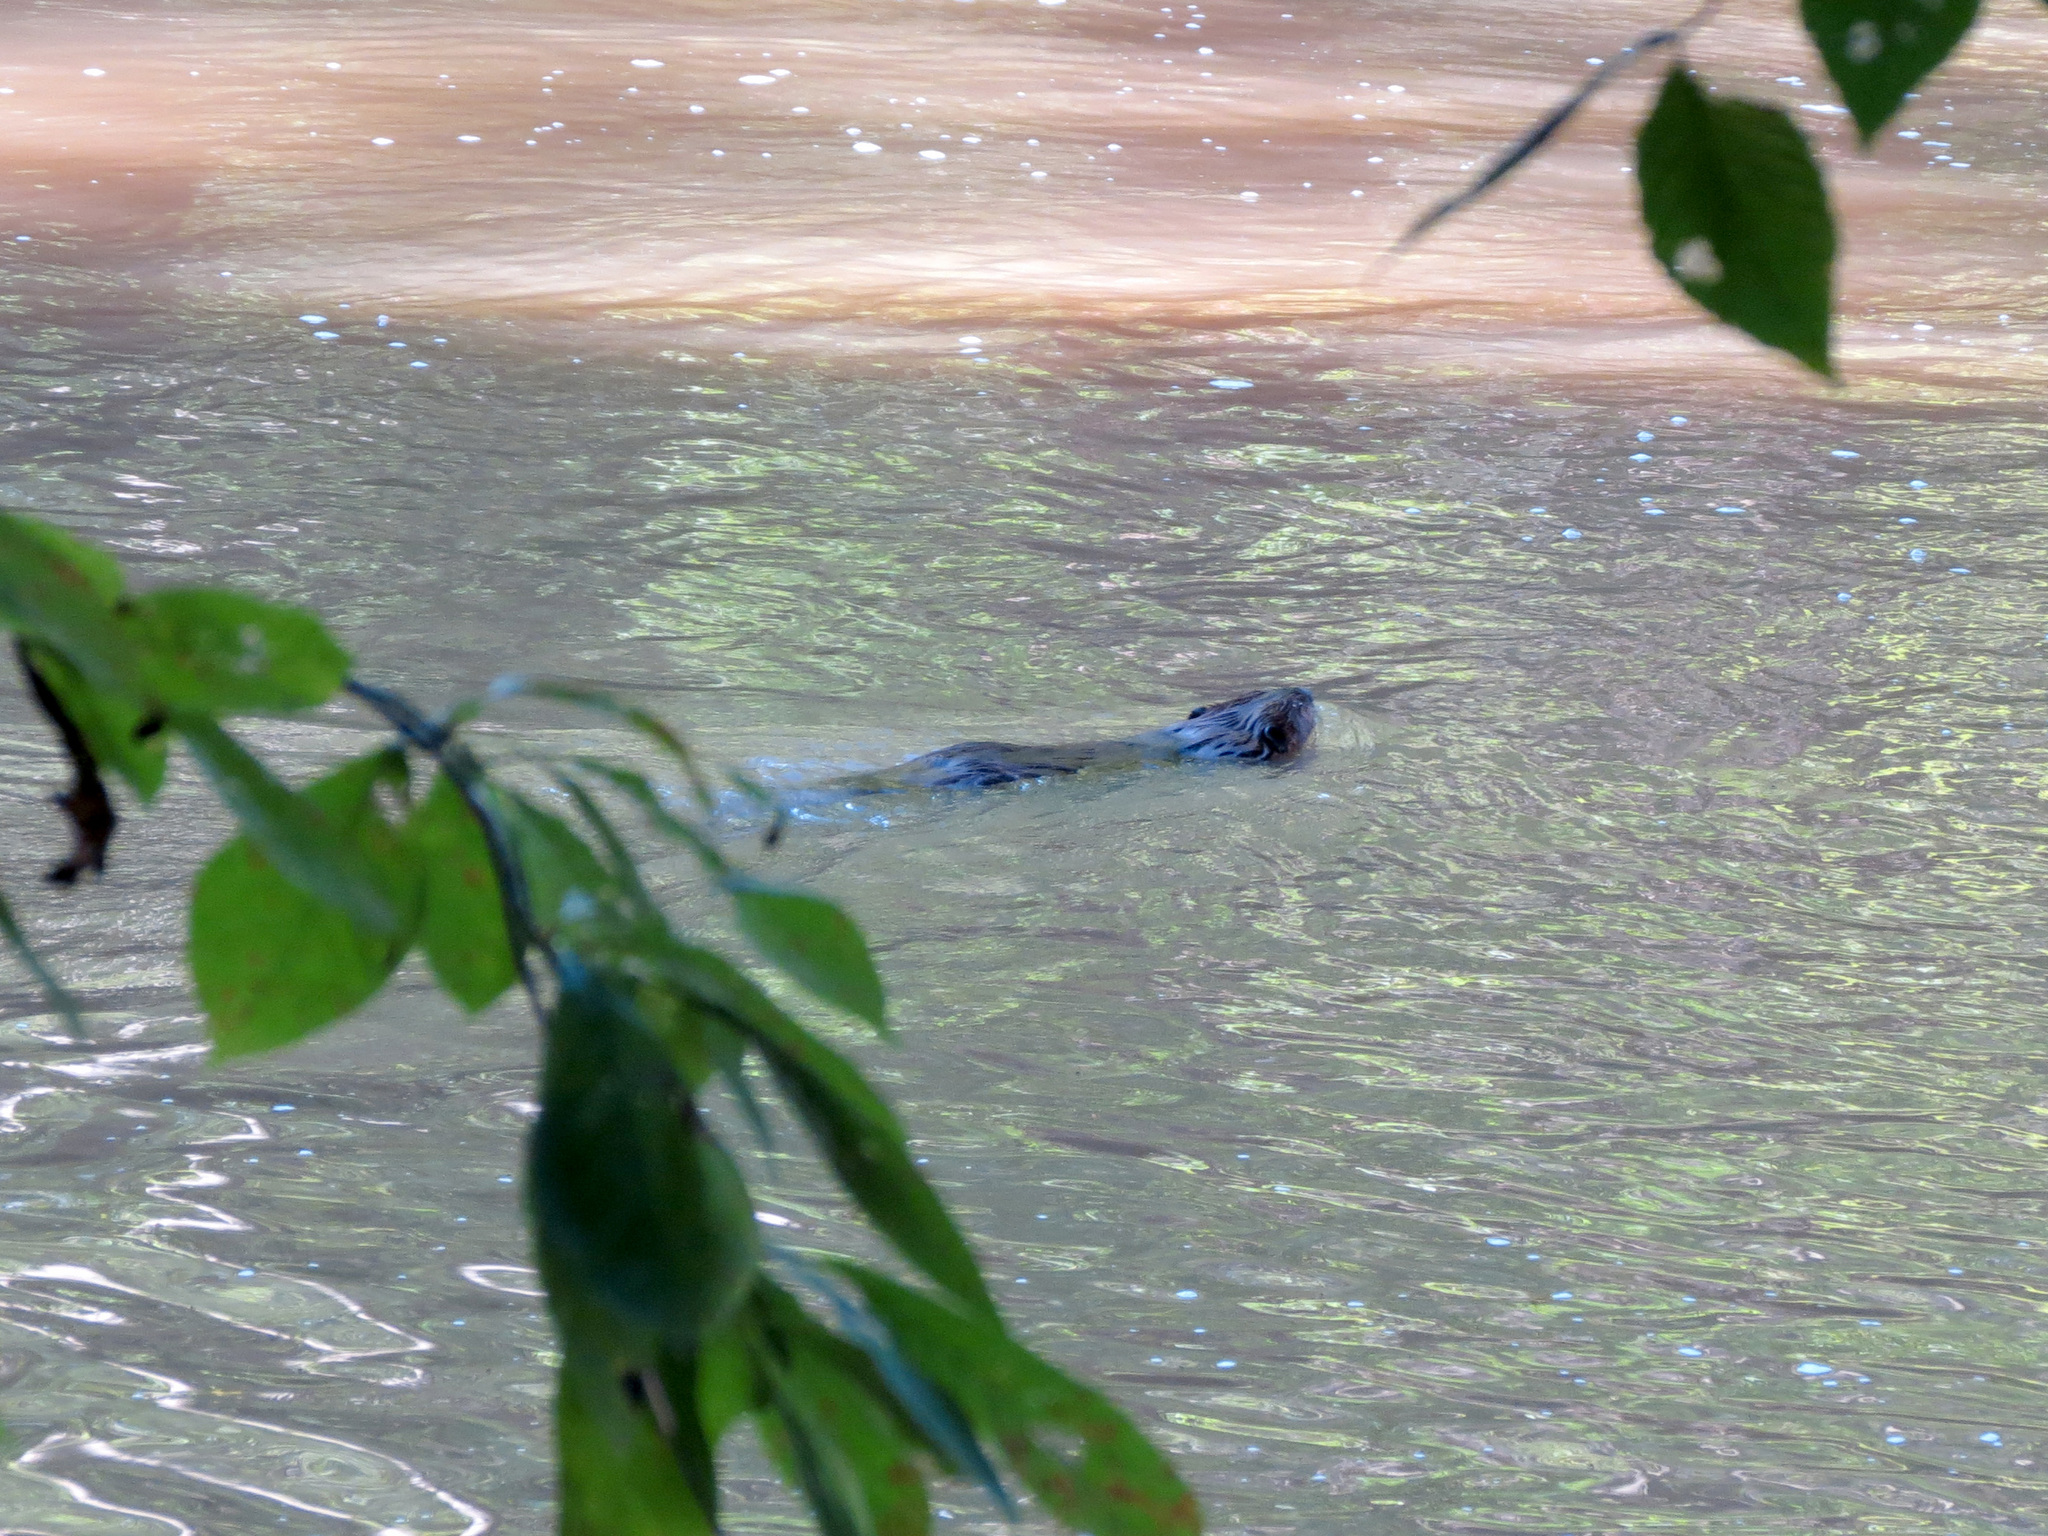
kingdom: Animalia
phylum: Chordata
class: Mammalia
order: Rodentia
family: Cricetidae
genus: Ondatra
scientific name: Ondatra zibethicus
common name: Muskrat
